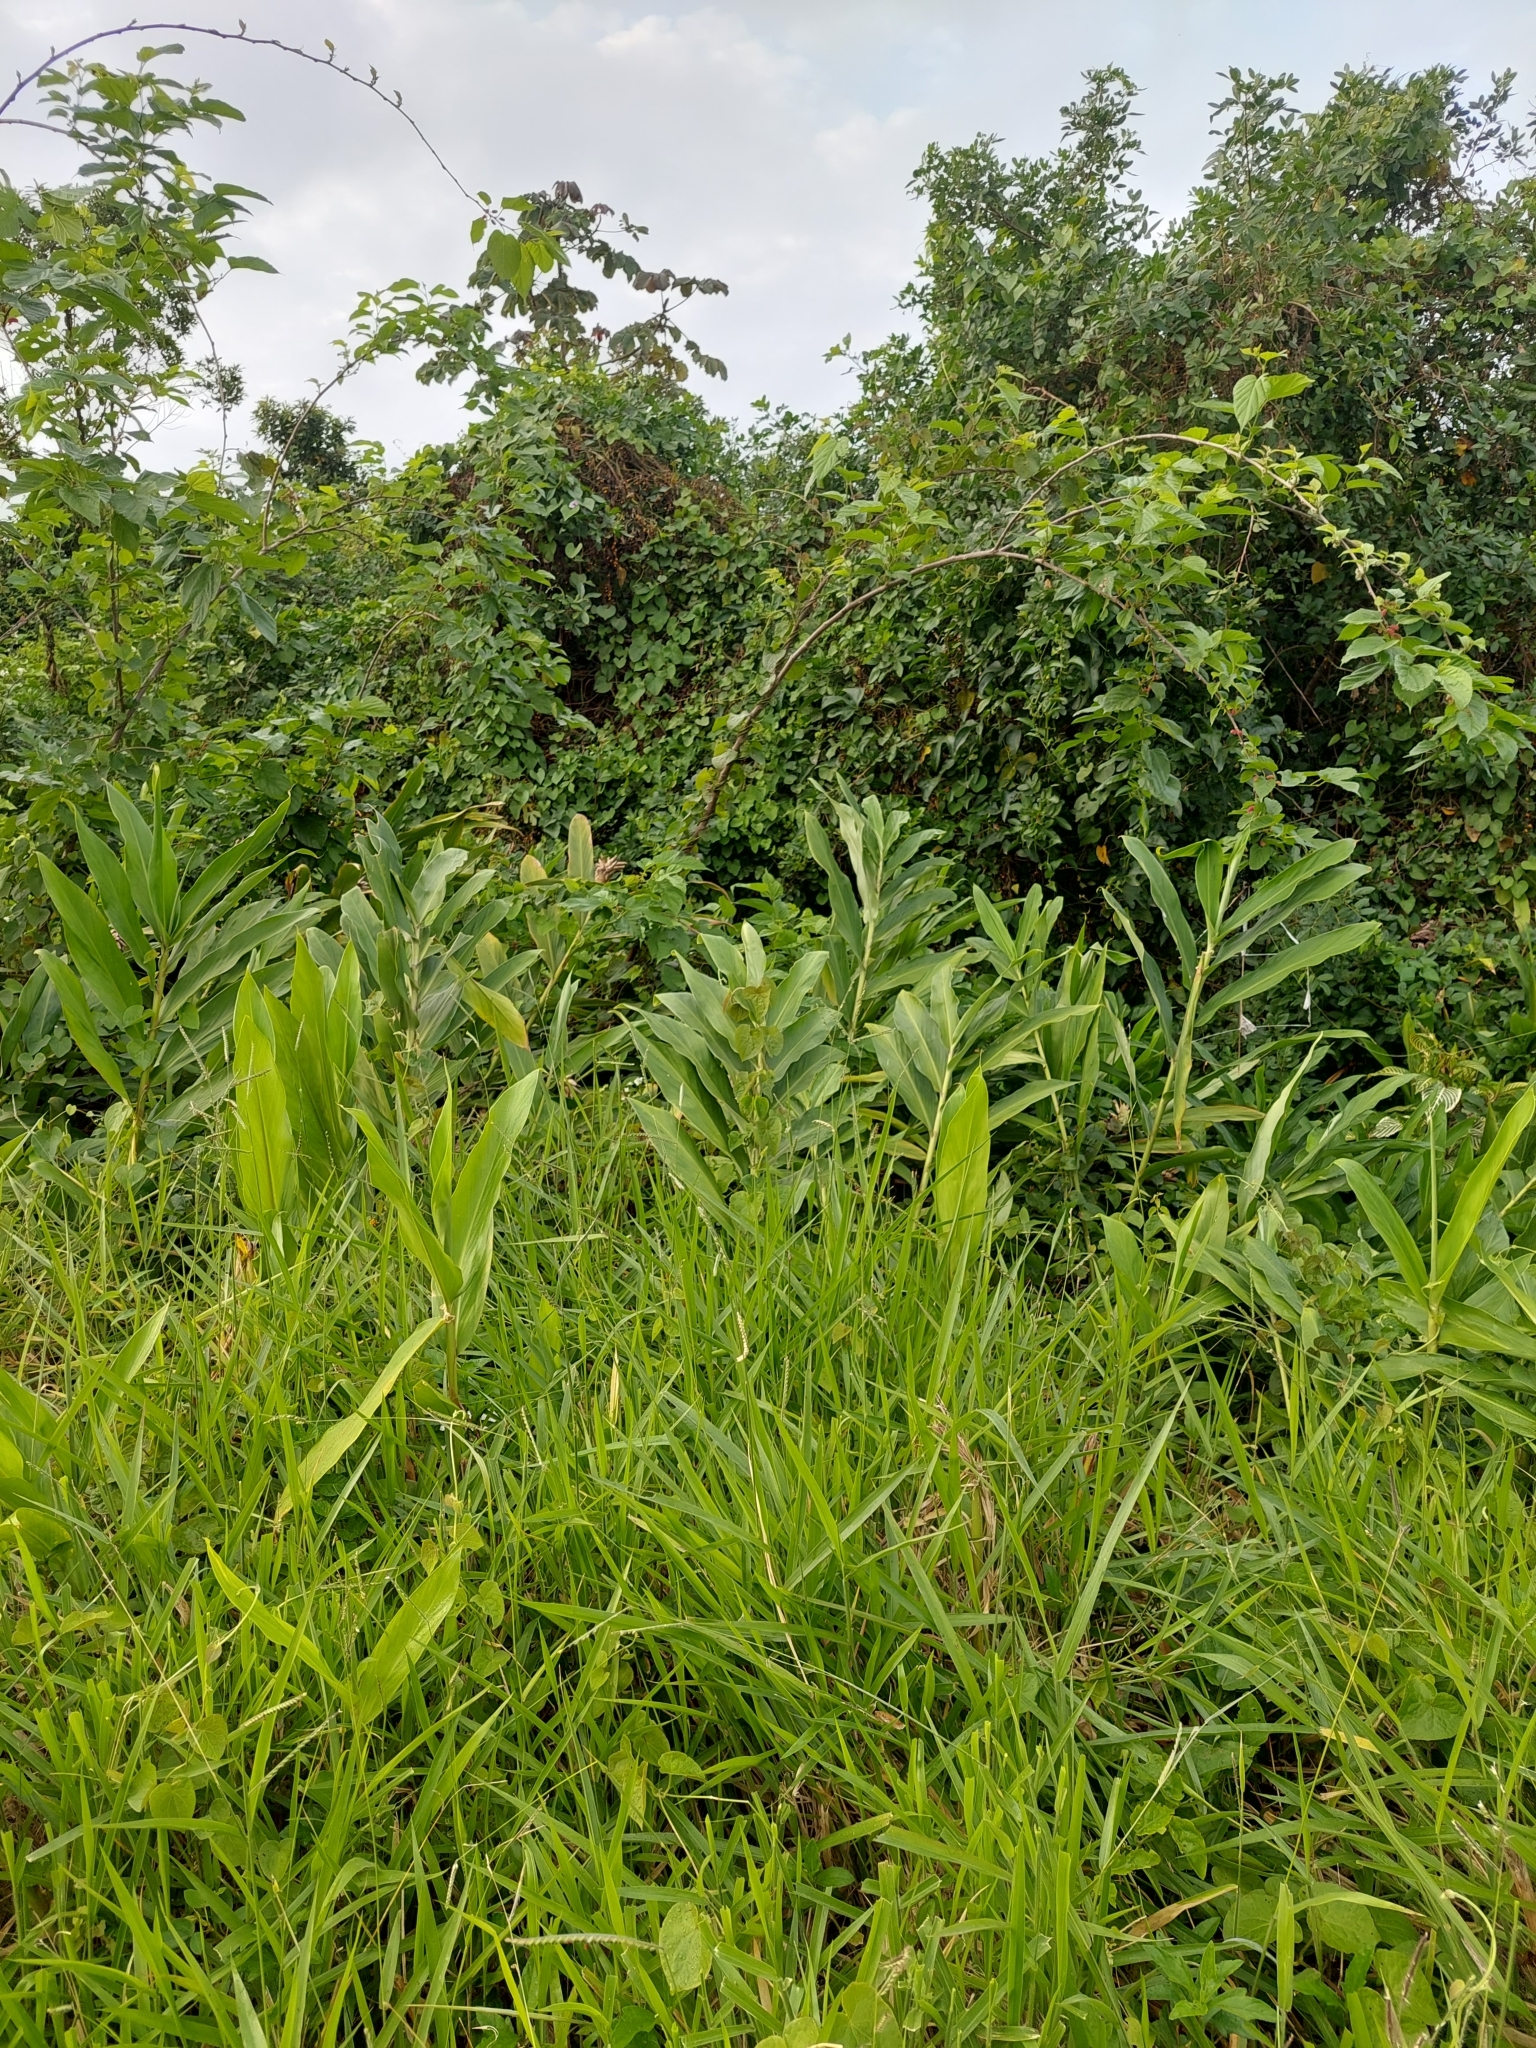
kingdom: Plantae
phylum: Tracheophyta
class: Liliopsida
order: Zingiberales
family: Zingiberaceae
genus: Hedychium
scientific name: Hedychium coronarium
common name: White garland-lily
